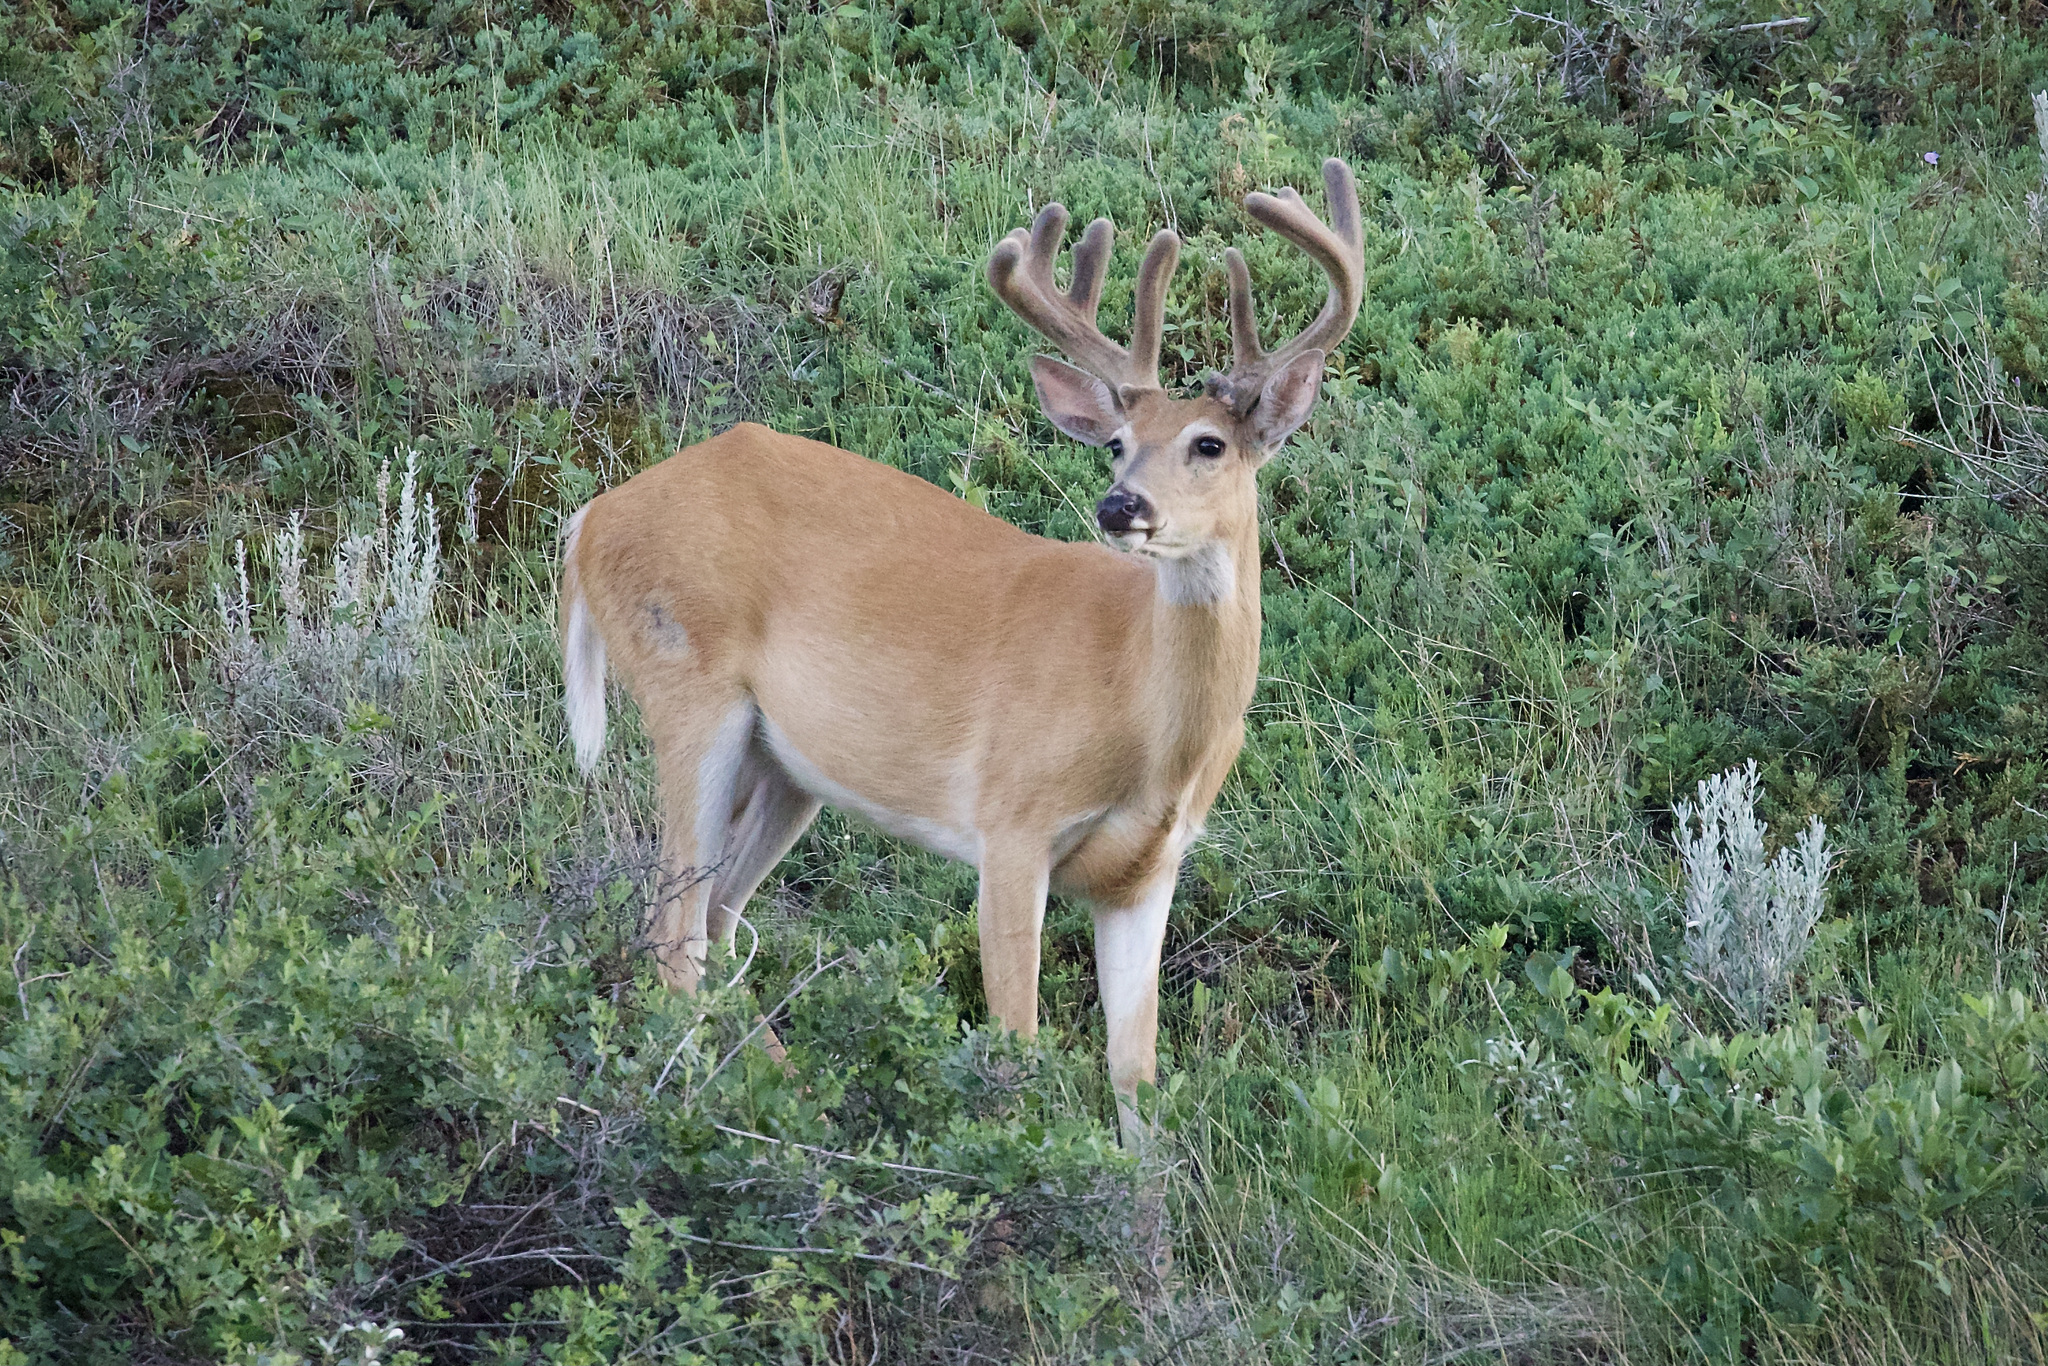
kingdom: Animalia
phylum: Chordata
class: Mammalia
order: Artiodactyla
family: Cervidae
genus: Odocoileus
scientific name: Odocoileus virginianus
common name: White-tailed deer
